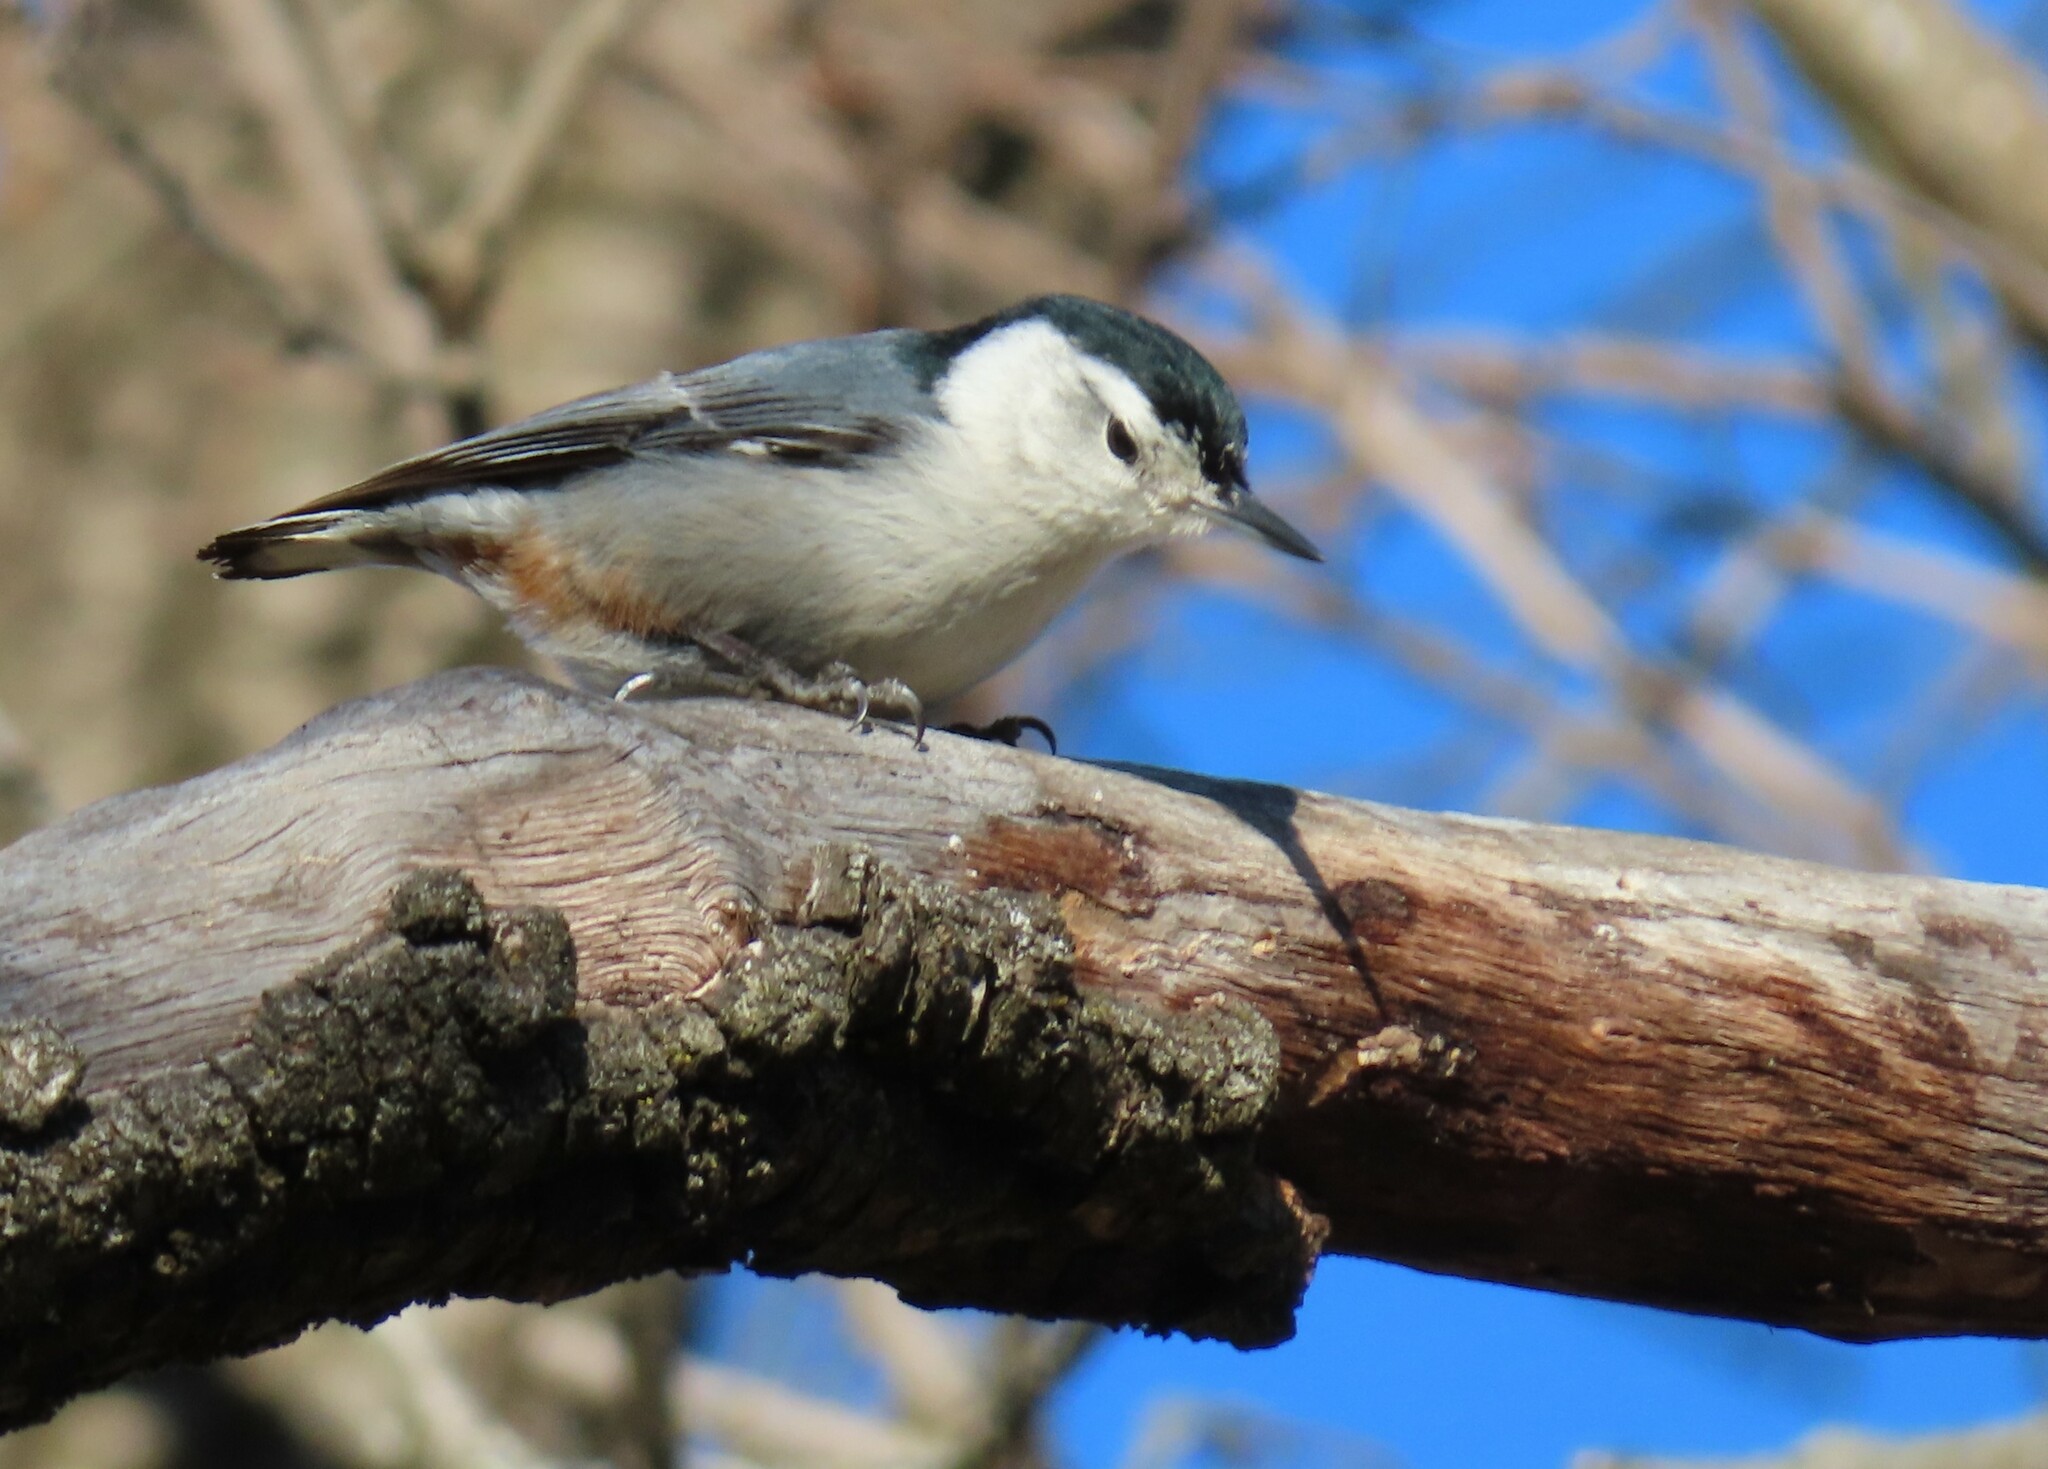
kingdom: Animalia
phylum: Chordata
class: Aves
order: Passeriformes
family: Sittidae
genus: Sitta
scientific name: Sitta carolinensis
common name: White-breasted nuthatch
